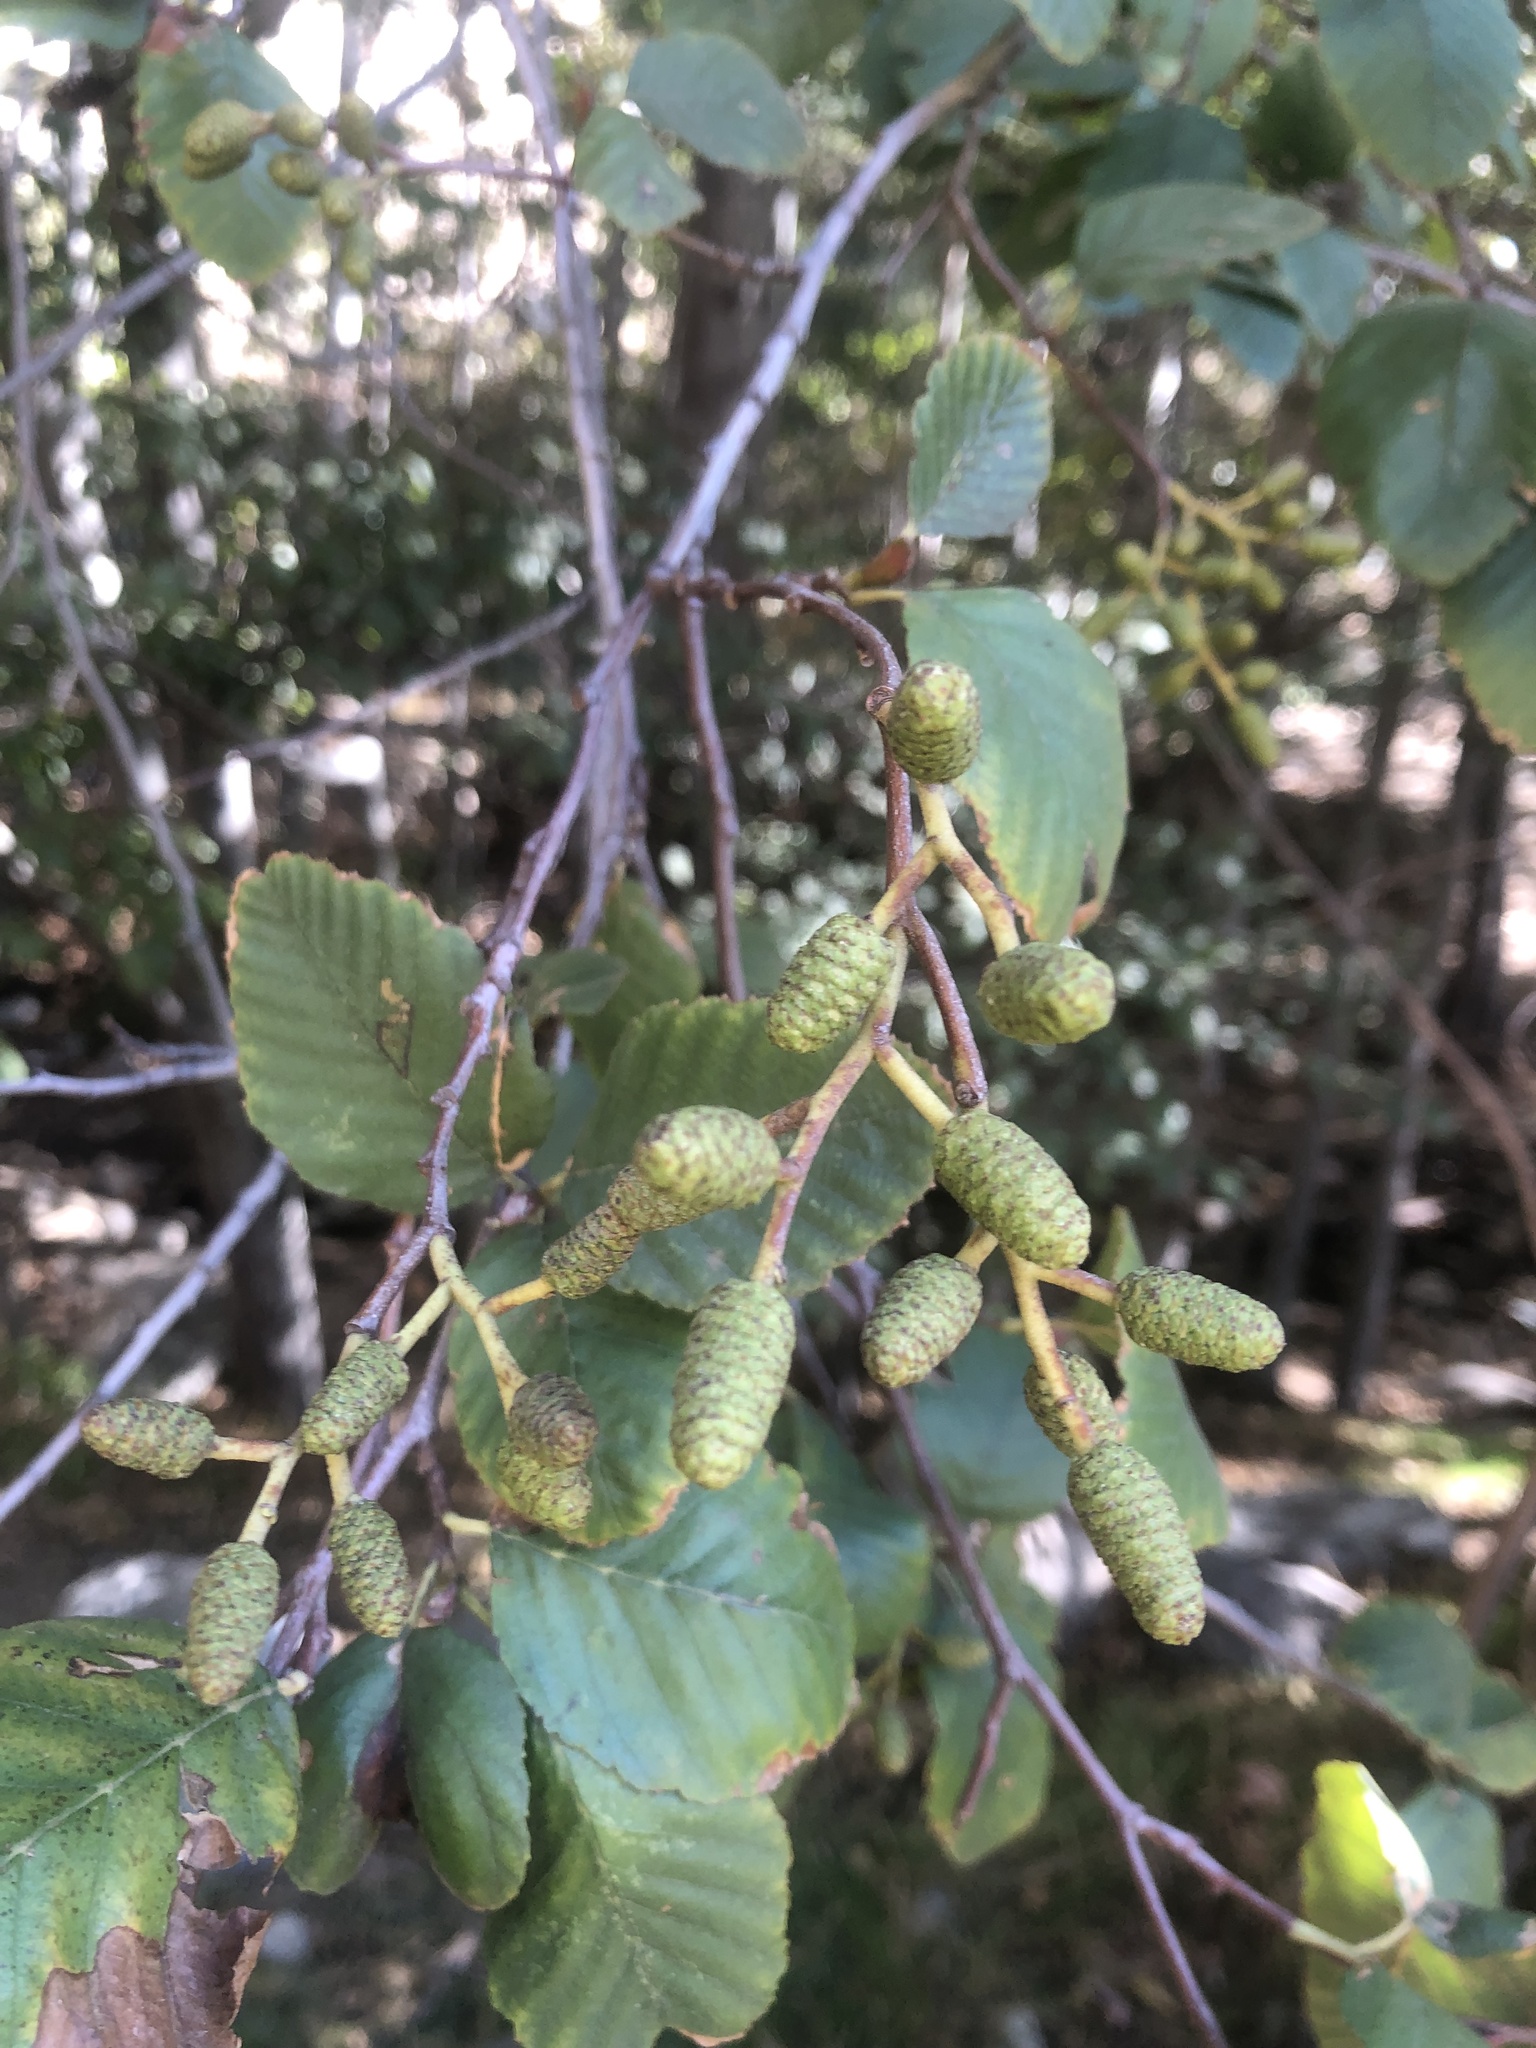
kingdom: Plantae
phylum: Tracheophyta
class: Magnoliopsida
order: Fagales
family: Betulaceae
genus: Alnus
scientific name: Alnus rhombifolia
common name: California alder
